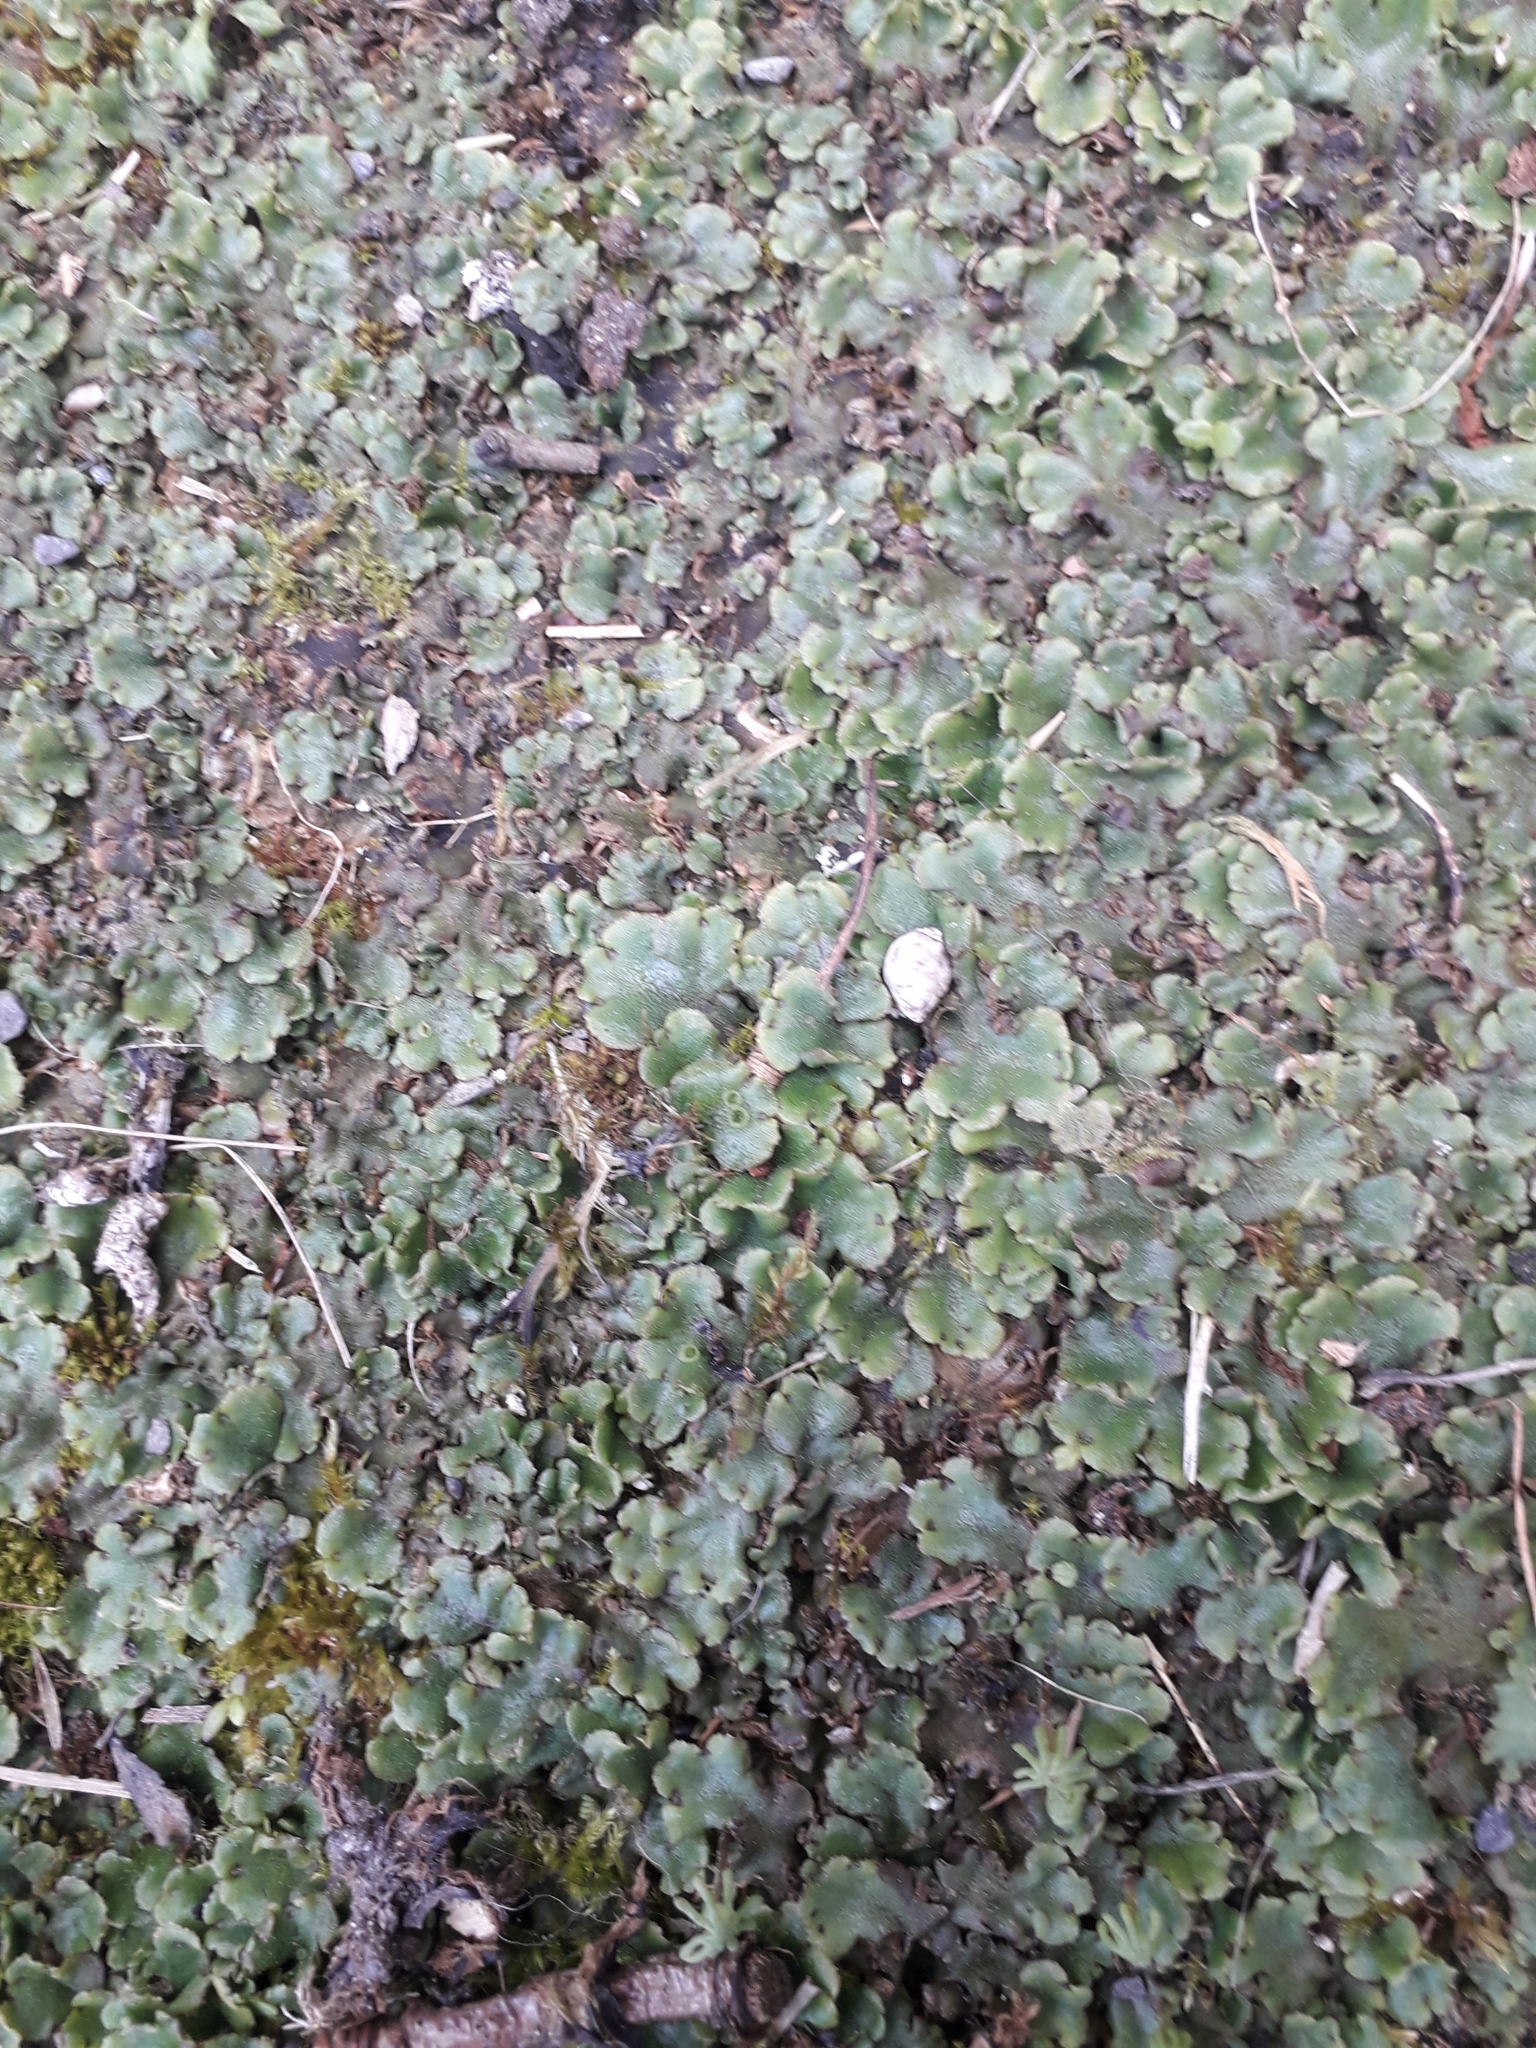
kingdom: Plantae
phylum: Marchantiophyta
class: Marchantiopsida
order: Marchantiales
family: Marchantiaceae
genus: Marchantia
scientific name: Marchantia polymorpha
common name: Common liverwort
